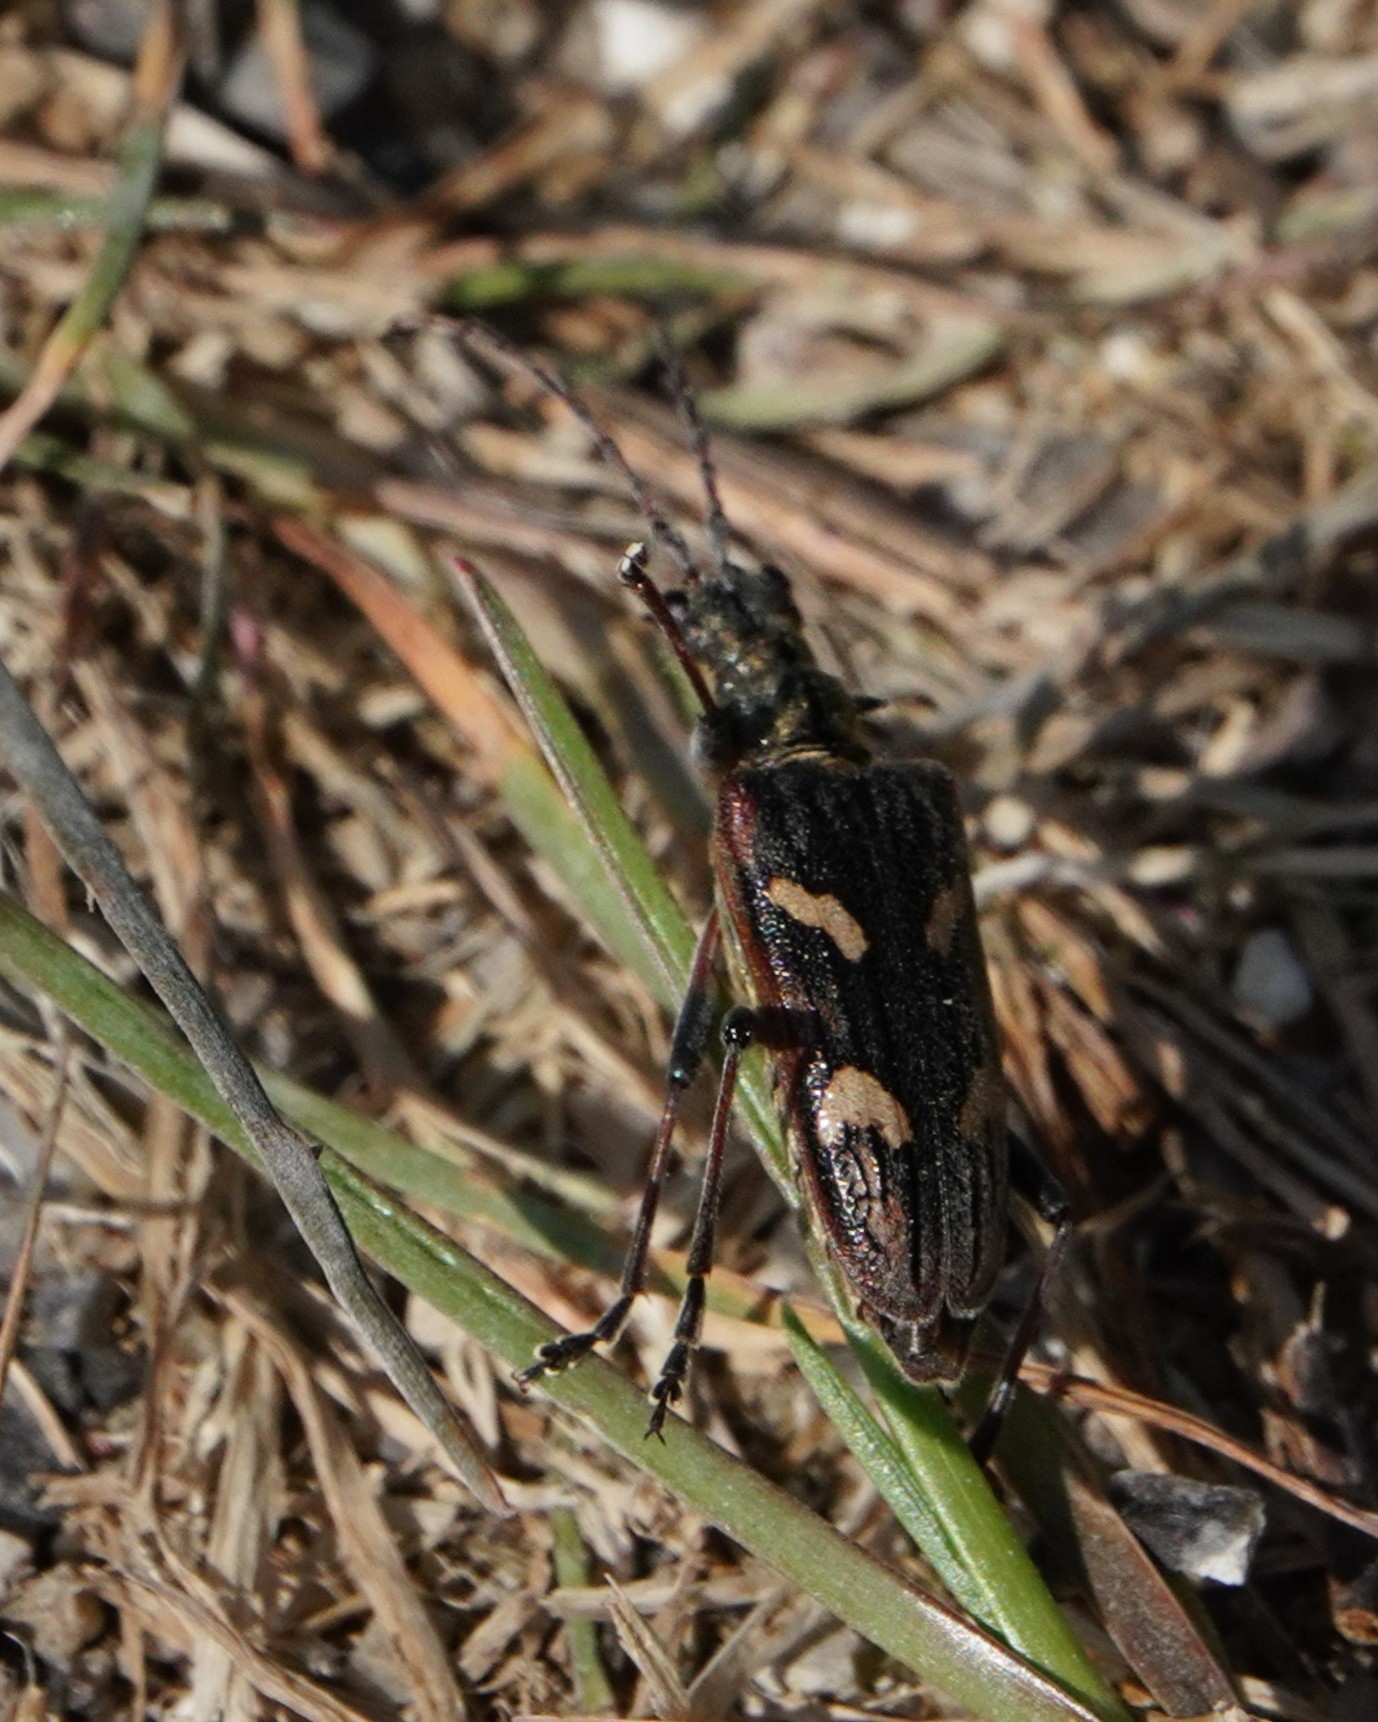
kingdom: Animalia
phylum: Arthropoda
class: Insecta
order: Coleoptera
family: Cerambycidae
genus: Rhagium
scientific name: Rhagium bifasciatum
